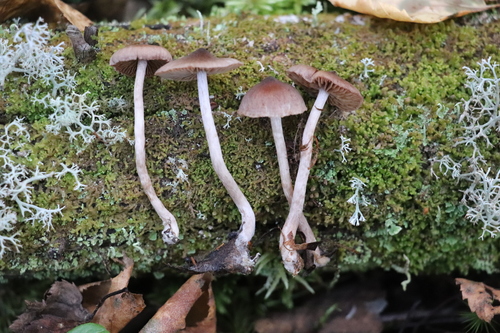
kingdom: Fungi
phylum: Basidiomycota
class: Agaricomycetes
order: Agaricales
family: Cortinariaceae
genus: Cortinarius
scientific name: Cortinarius
